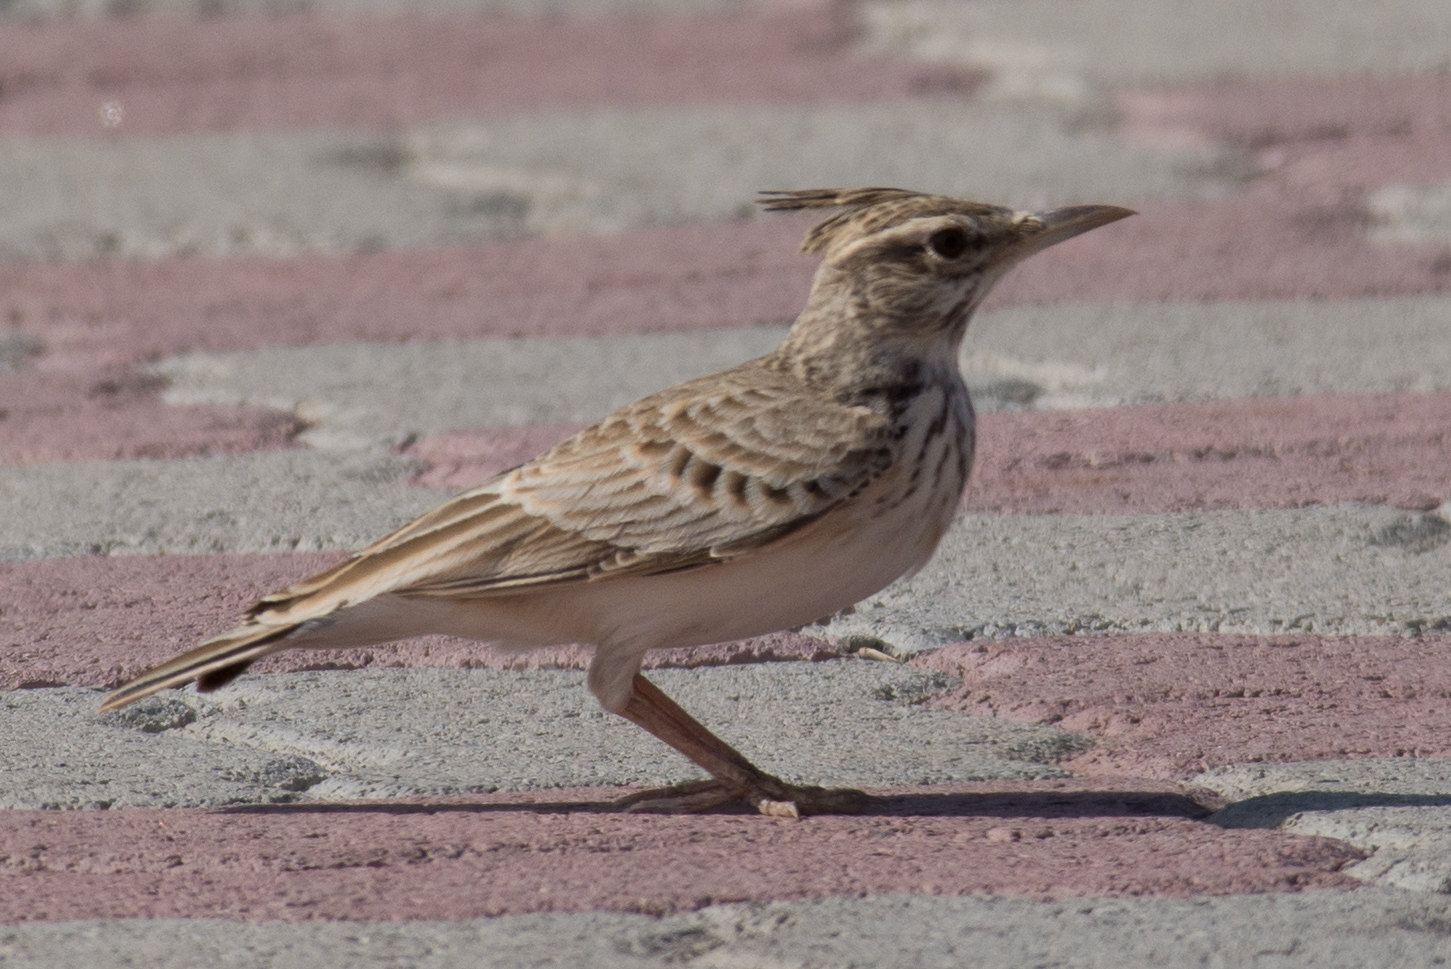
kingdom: Animalia
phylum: Chordata
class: Aves
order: Passeriformes
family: Alaudidae
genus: Galerida
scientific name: Galerida cristata
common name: Crested lark
